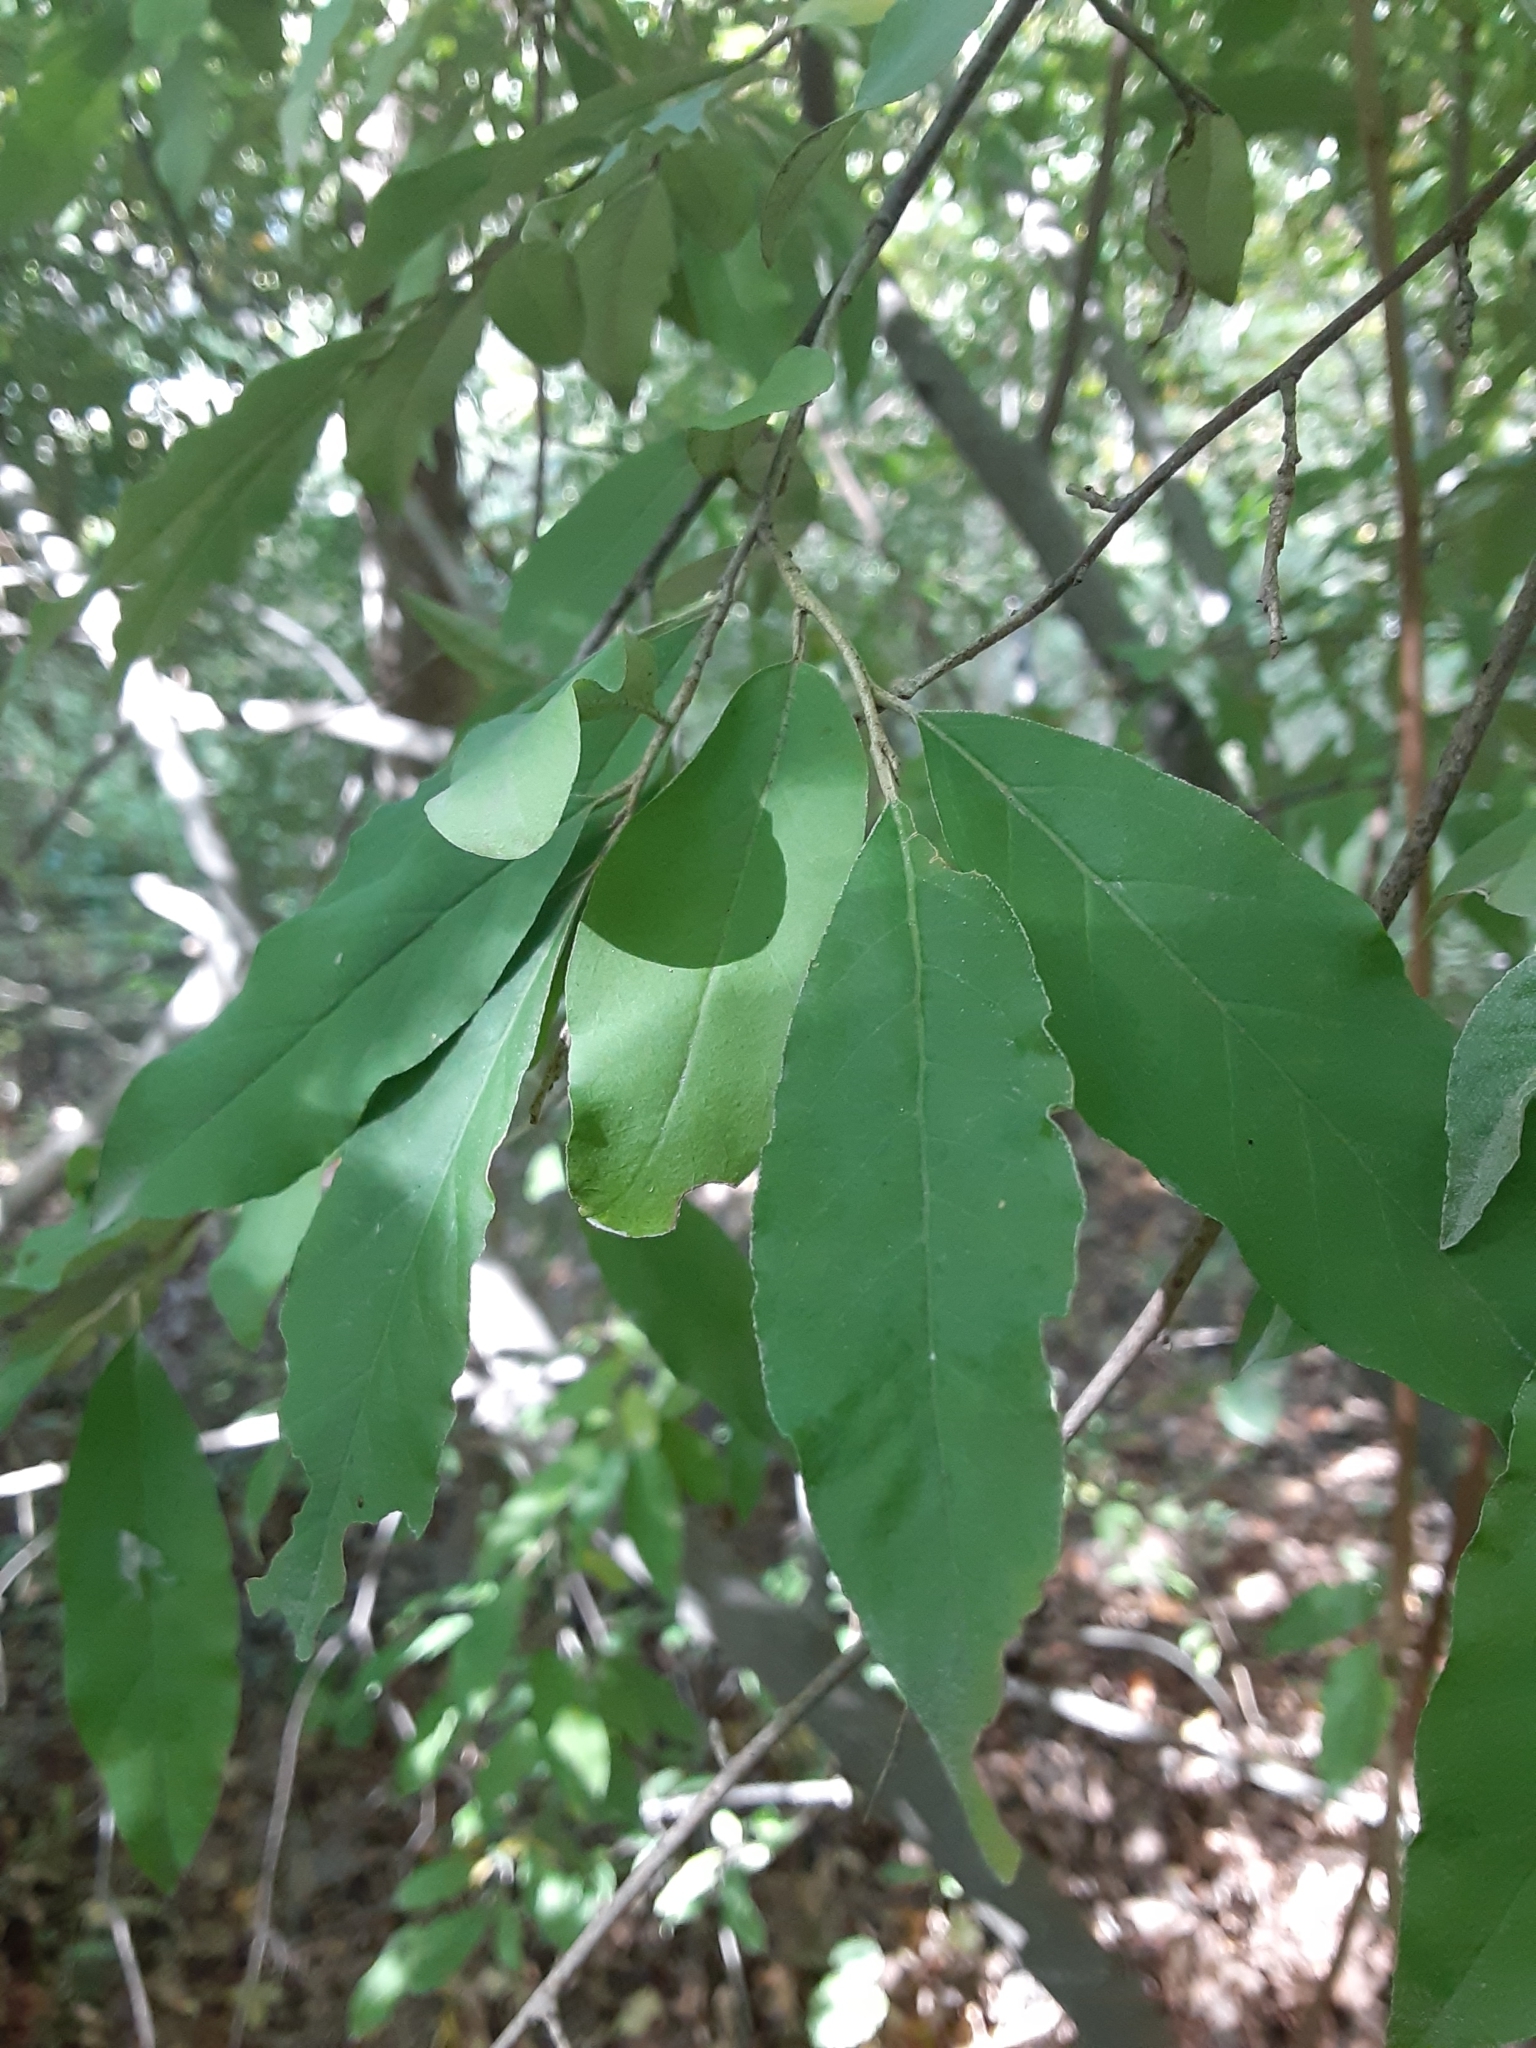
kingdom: Plantae
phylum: Tracheophyta
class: Magnoliopsida
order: Rosales
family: Elaeagnaceae
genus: Elaeagnus
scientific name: Elaeagnus umbellata
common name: Autumn olive
